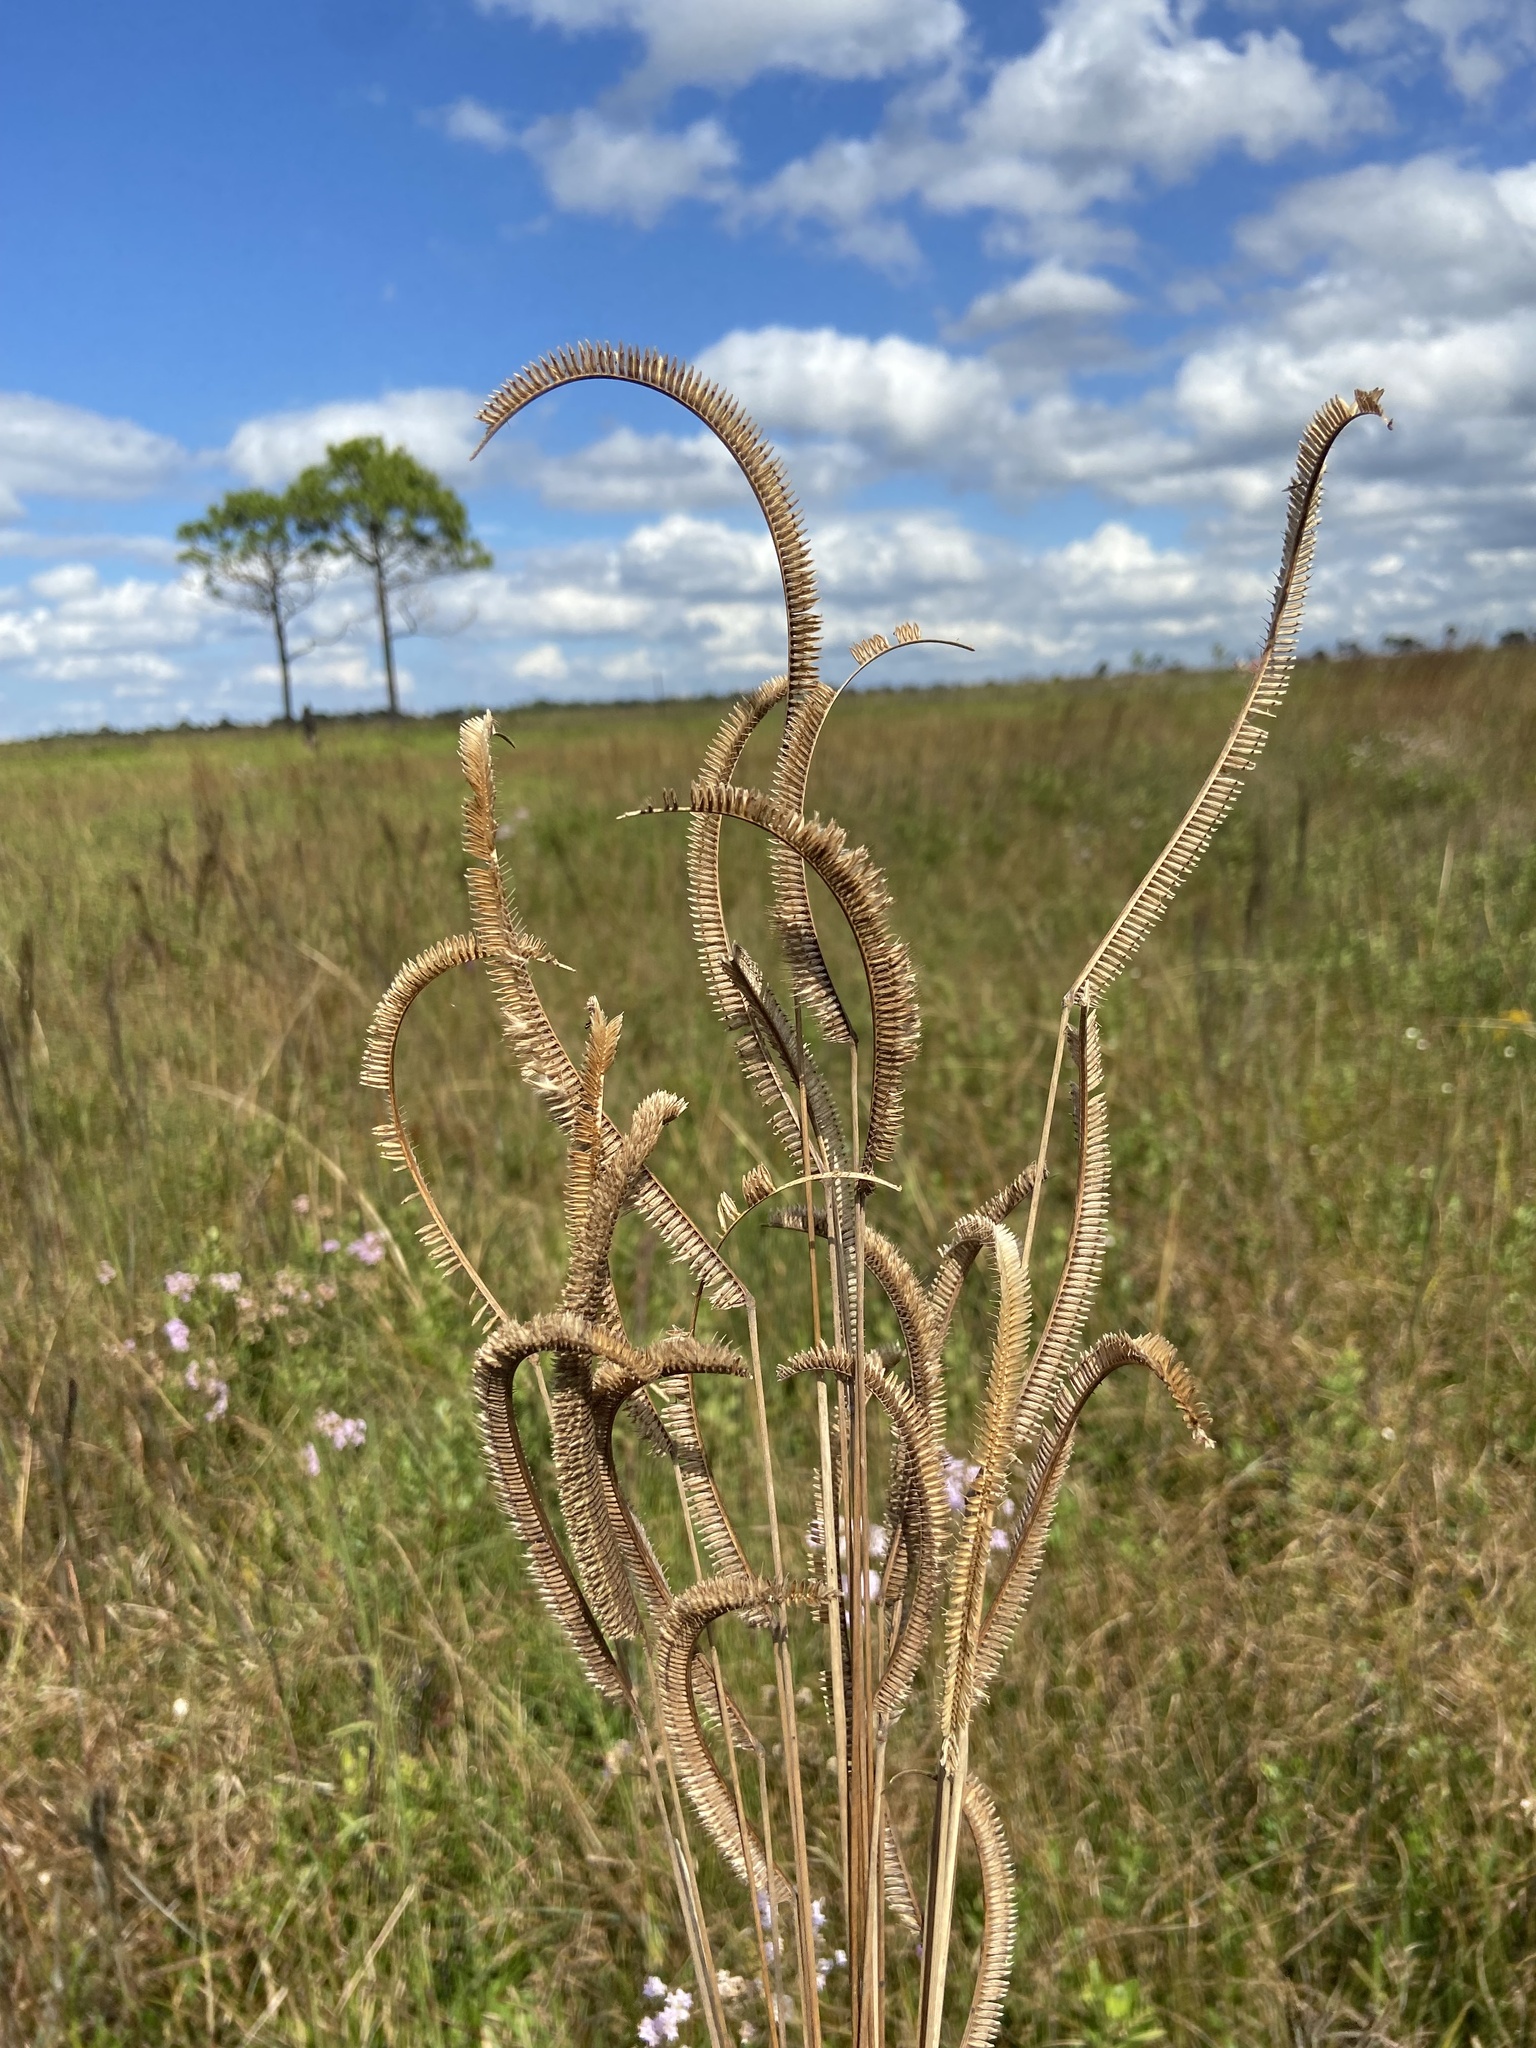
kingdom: Plantae
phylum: Tracheophyta
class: Liliopsida
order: Poales
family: Poaceae
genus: Ctenium
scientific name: Ctenium aromaticum
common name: Toothache grass
